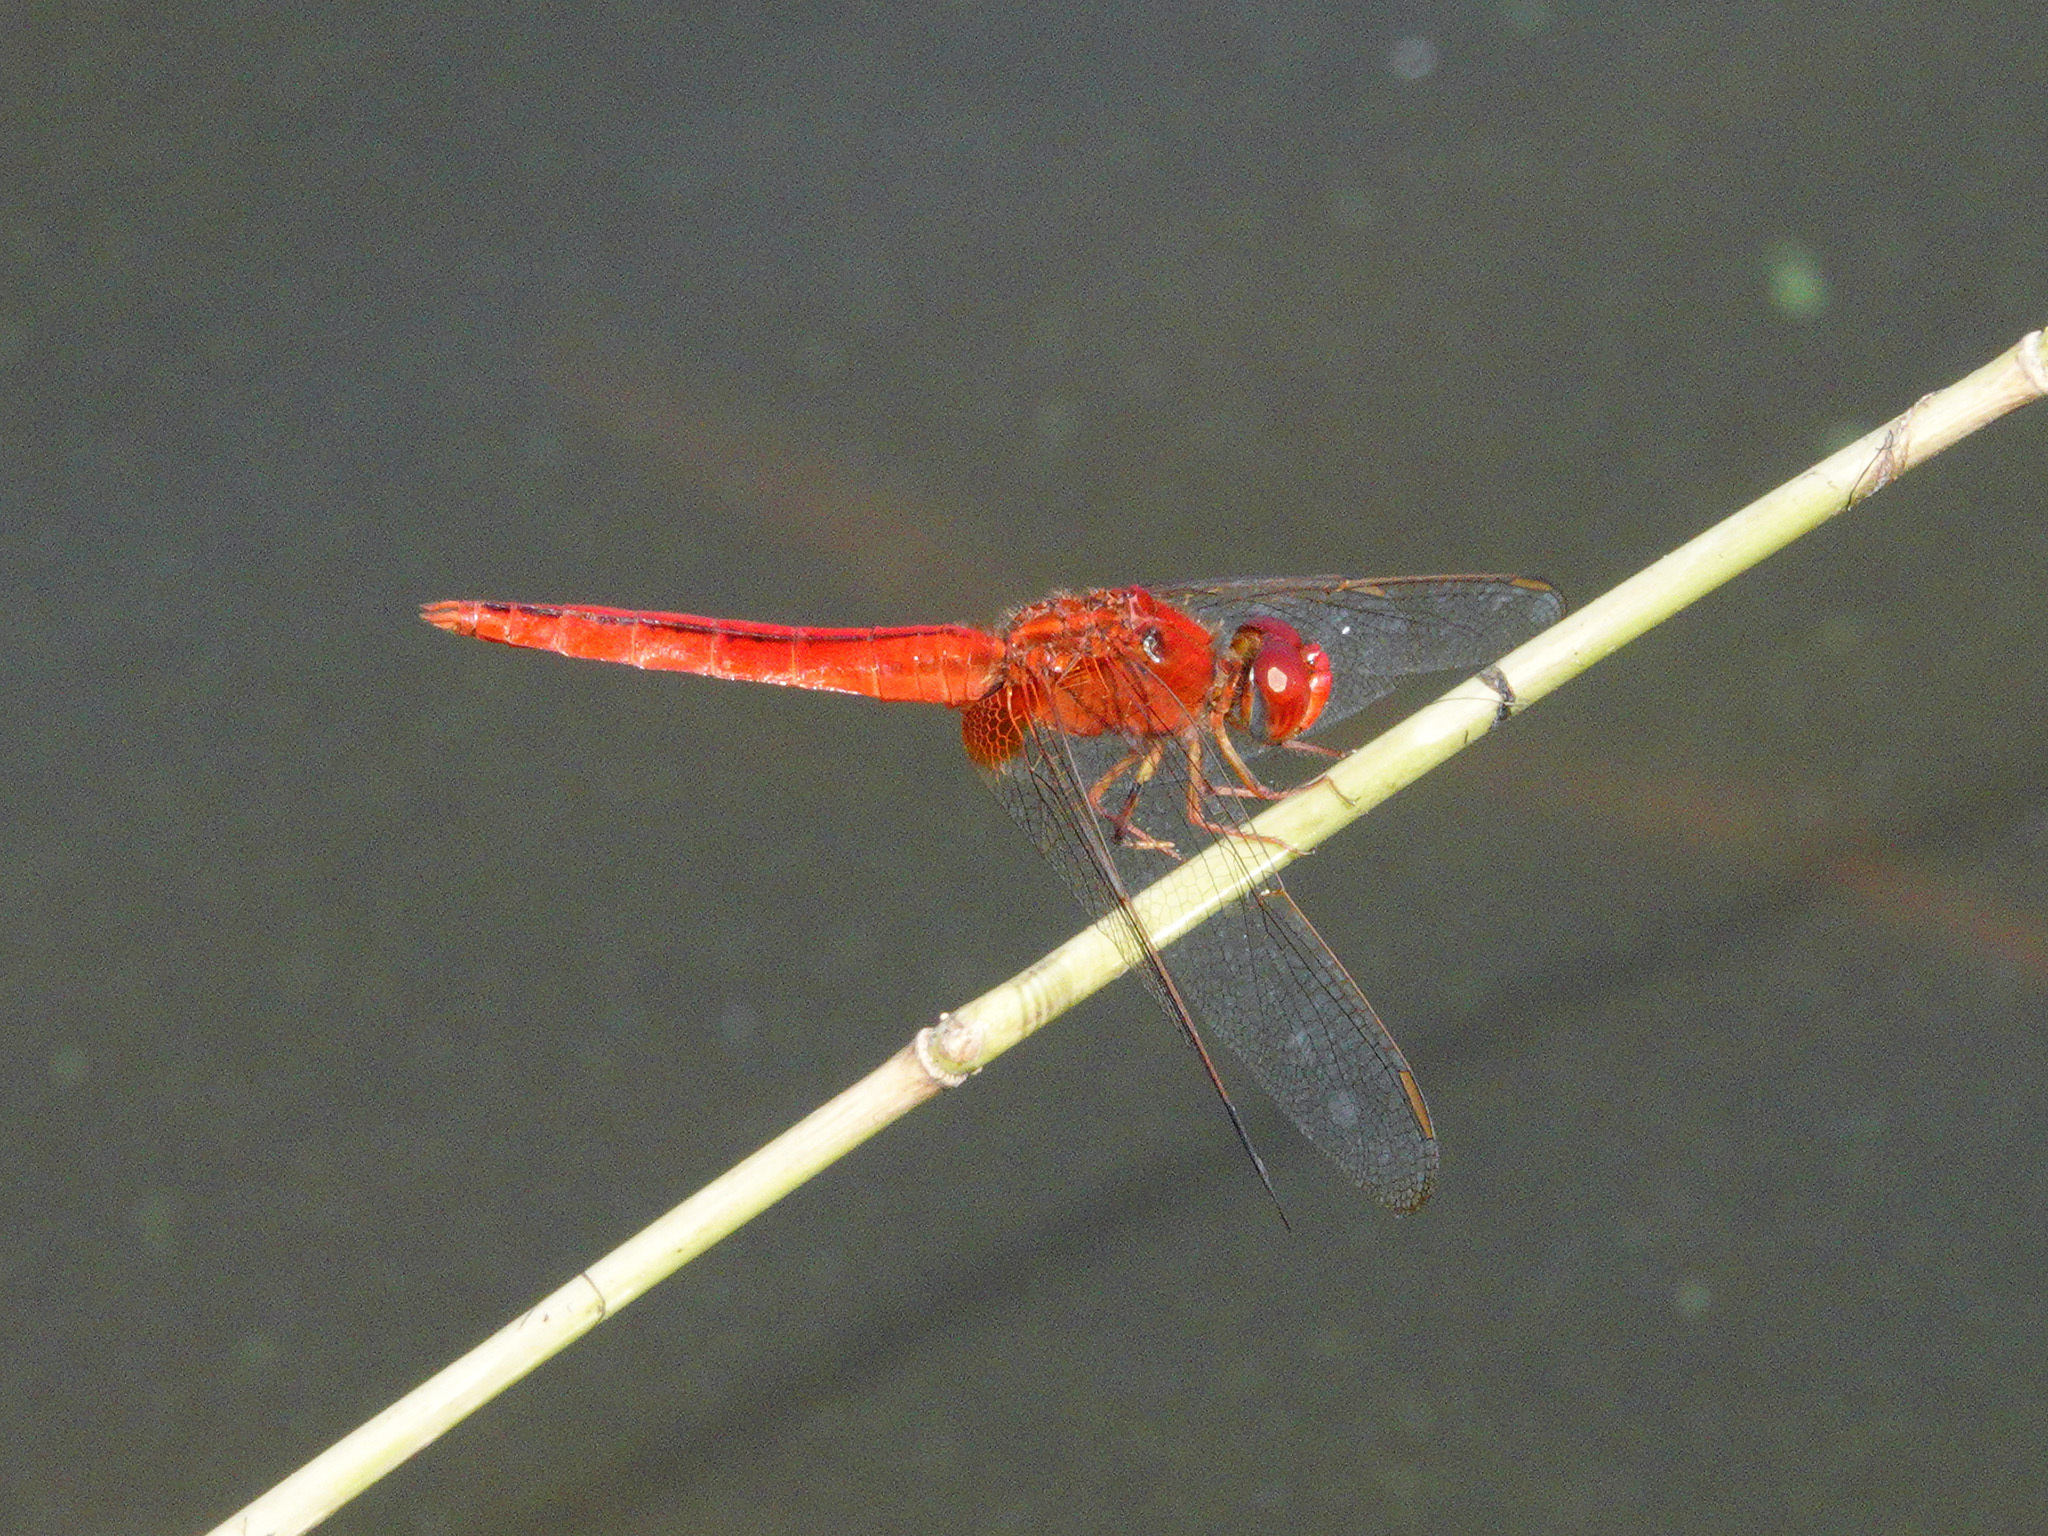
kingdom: Animalia
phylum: Arthropoda
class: Insecta
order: Odonata
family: Libellulidae
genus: Crocothemis
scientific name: Crocothemis servilia
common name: Scarlet skimmer
